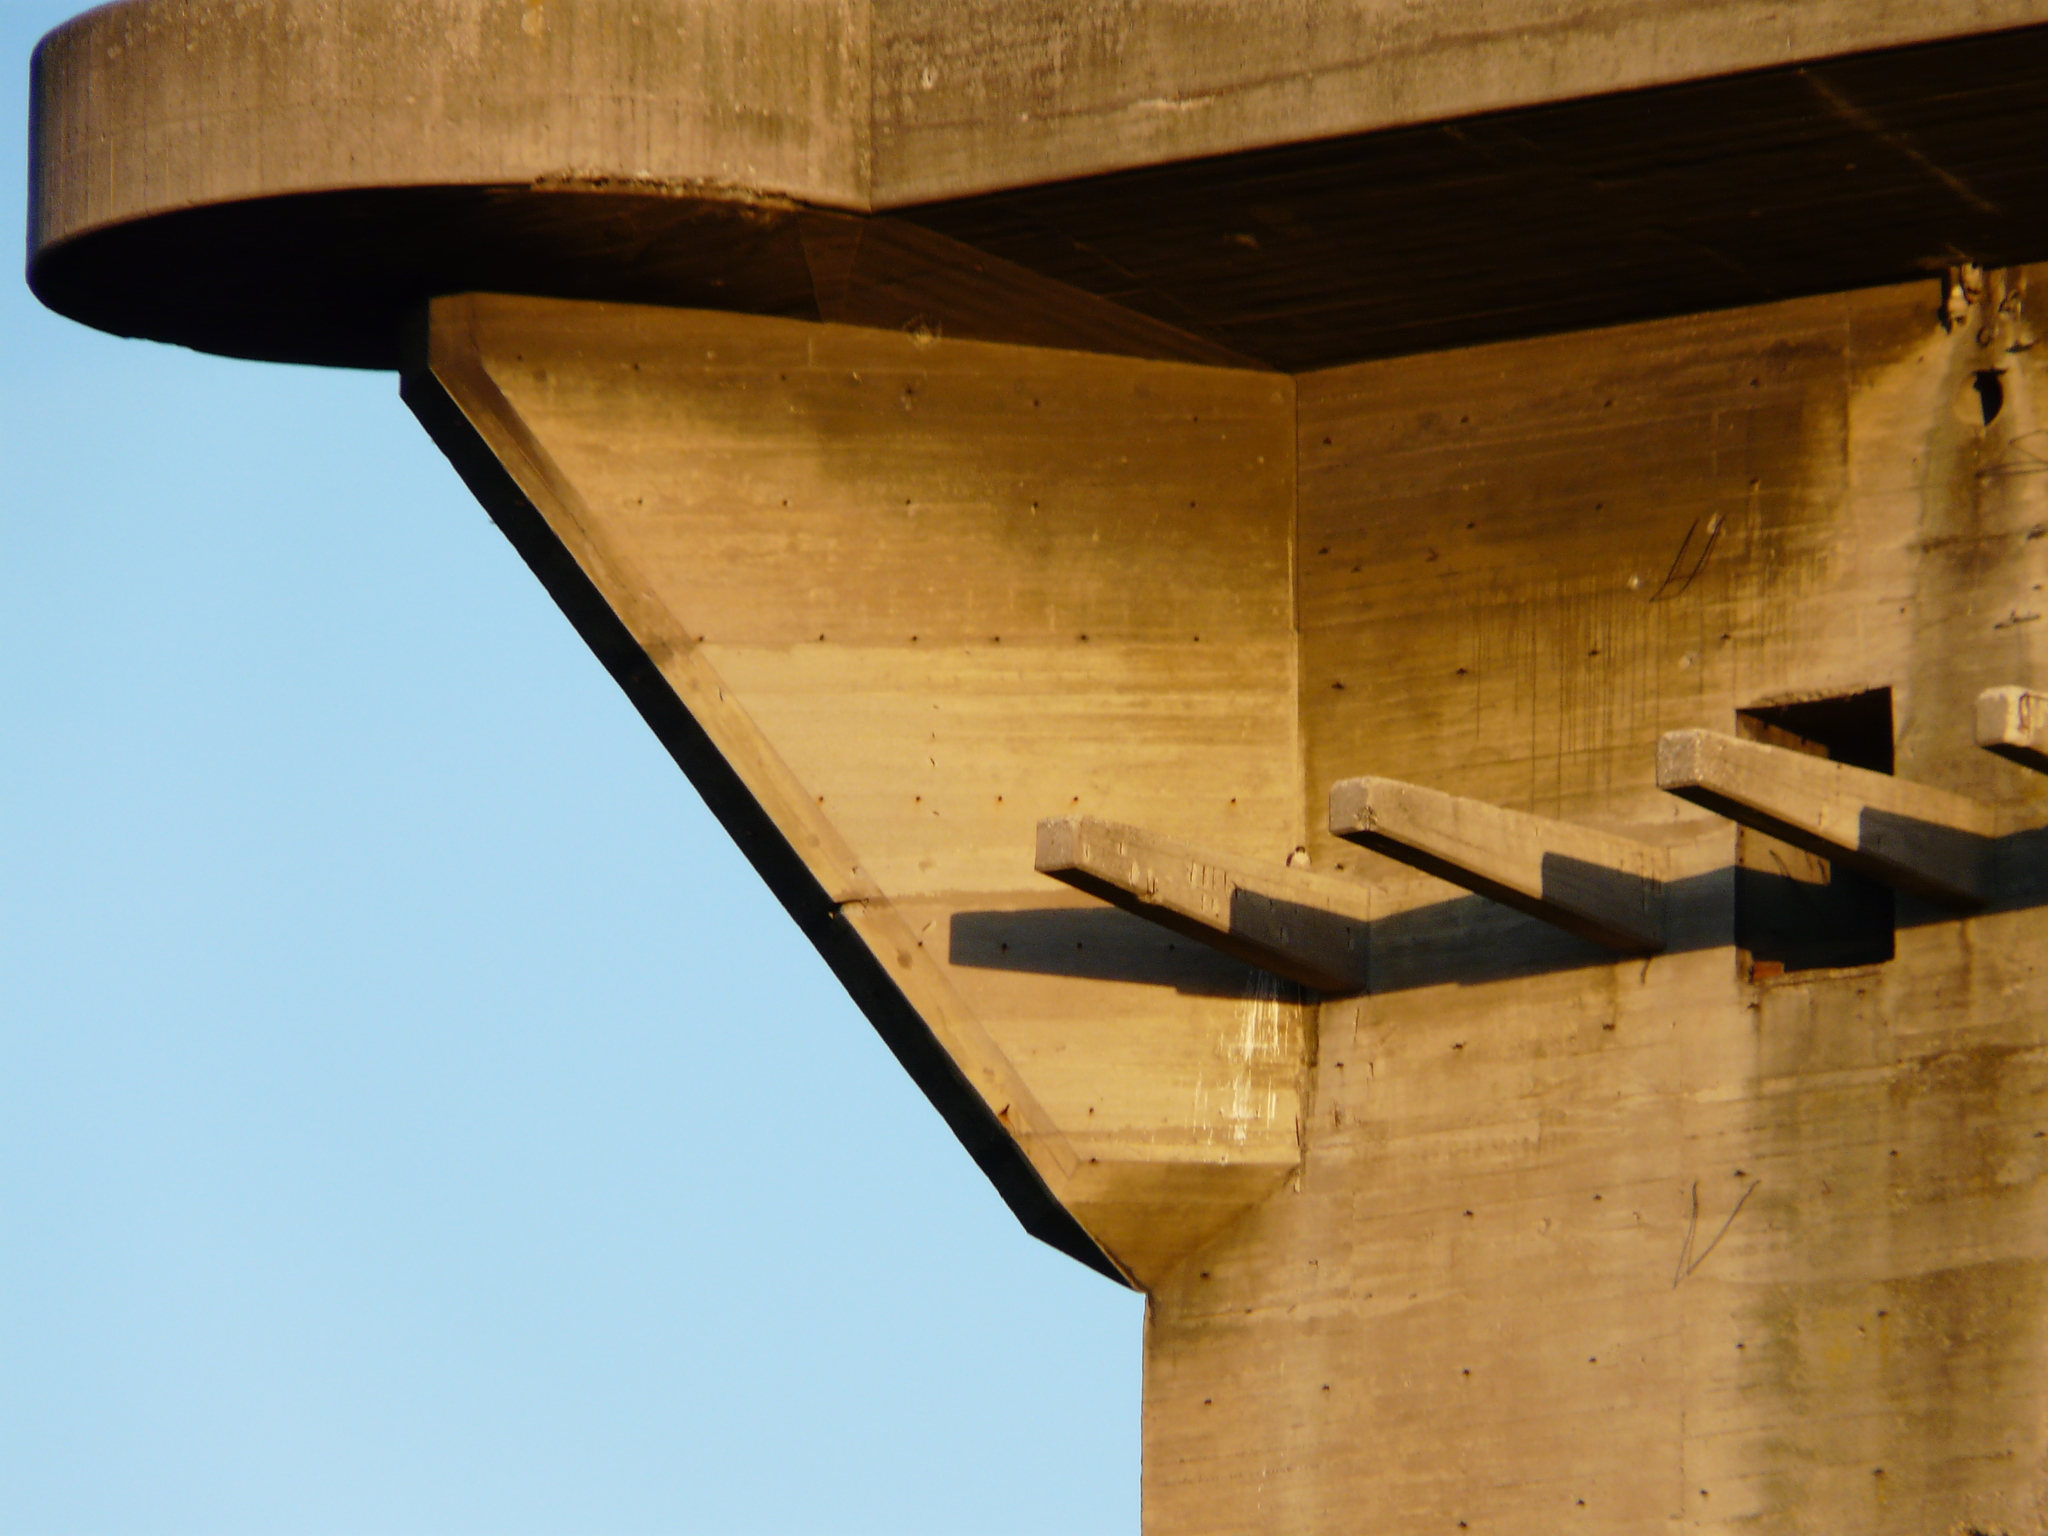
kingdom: Animalia
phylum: Chordata
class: Aves
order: Falconiformes
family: Falconidae
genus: Falco
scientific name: Falco peregrinus
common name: Peregrine falcon
